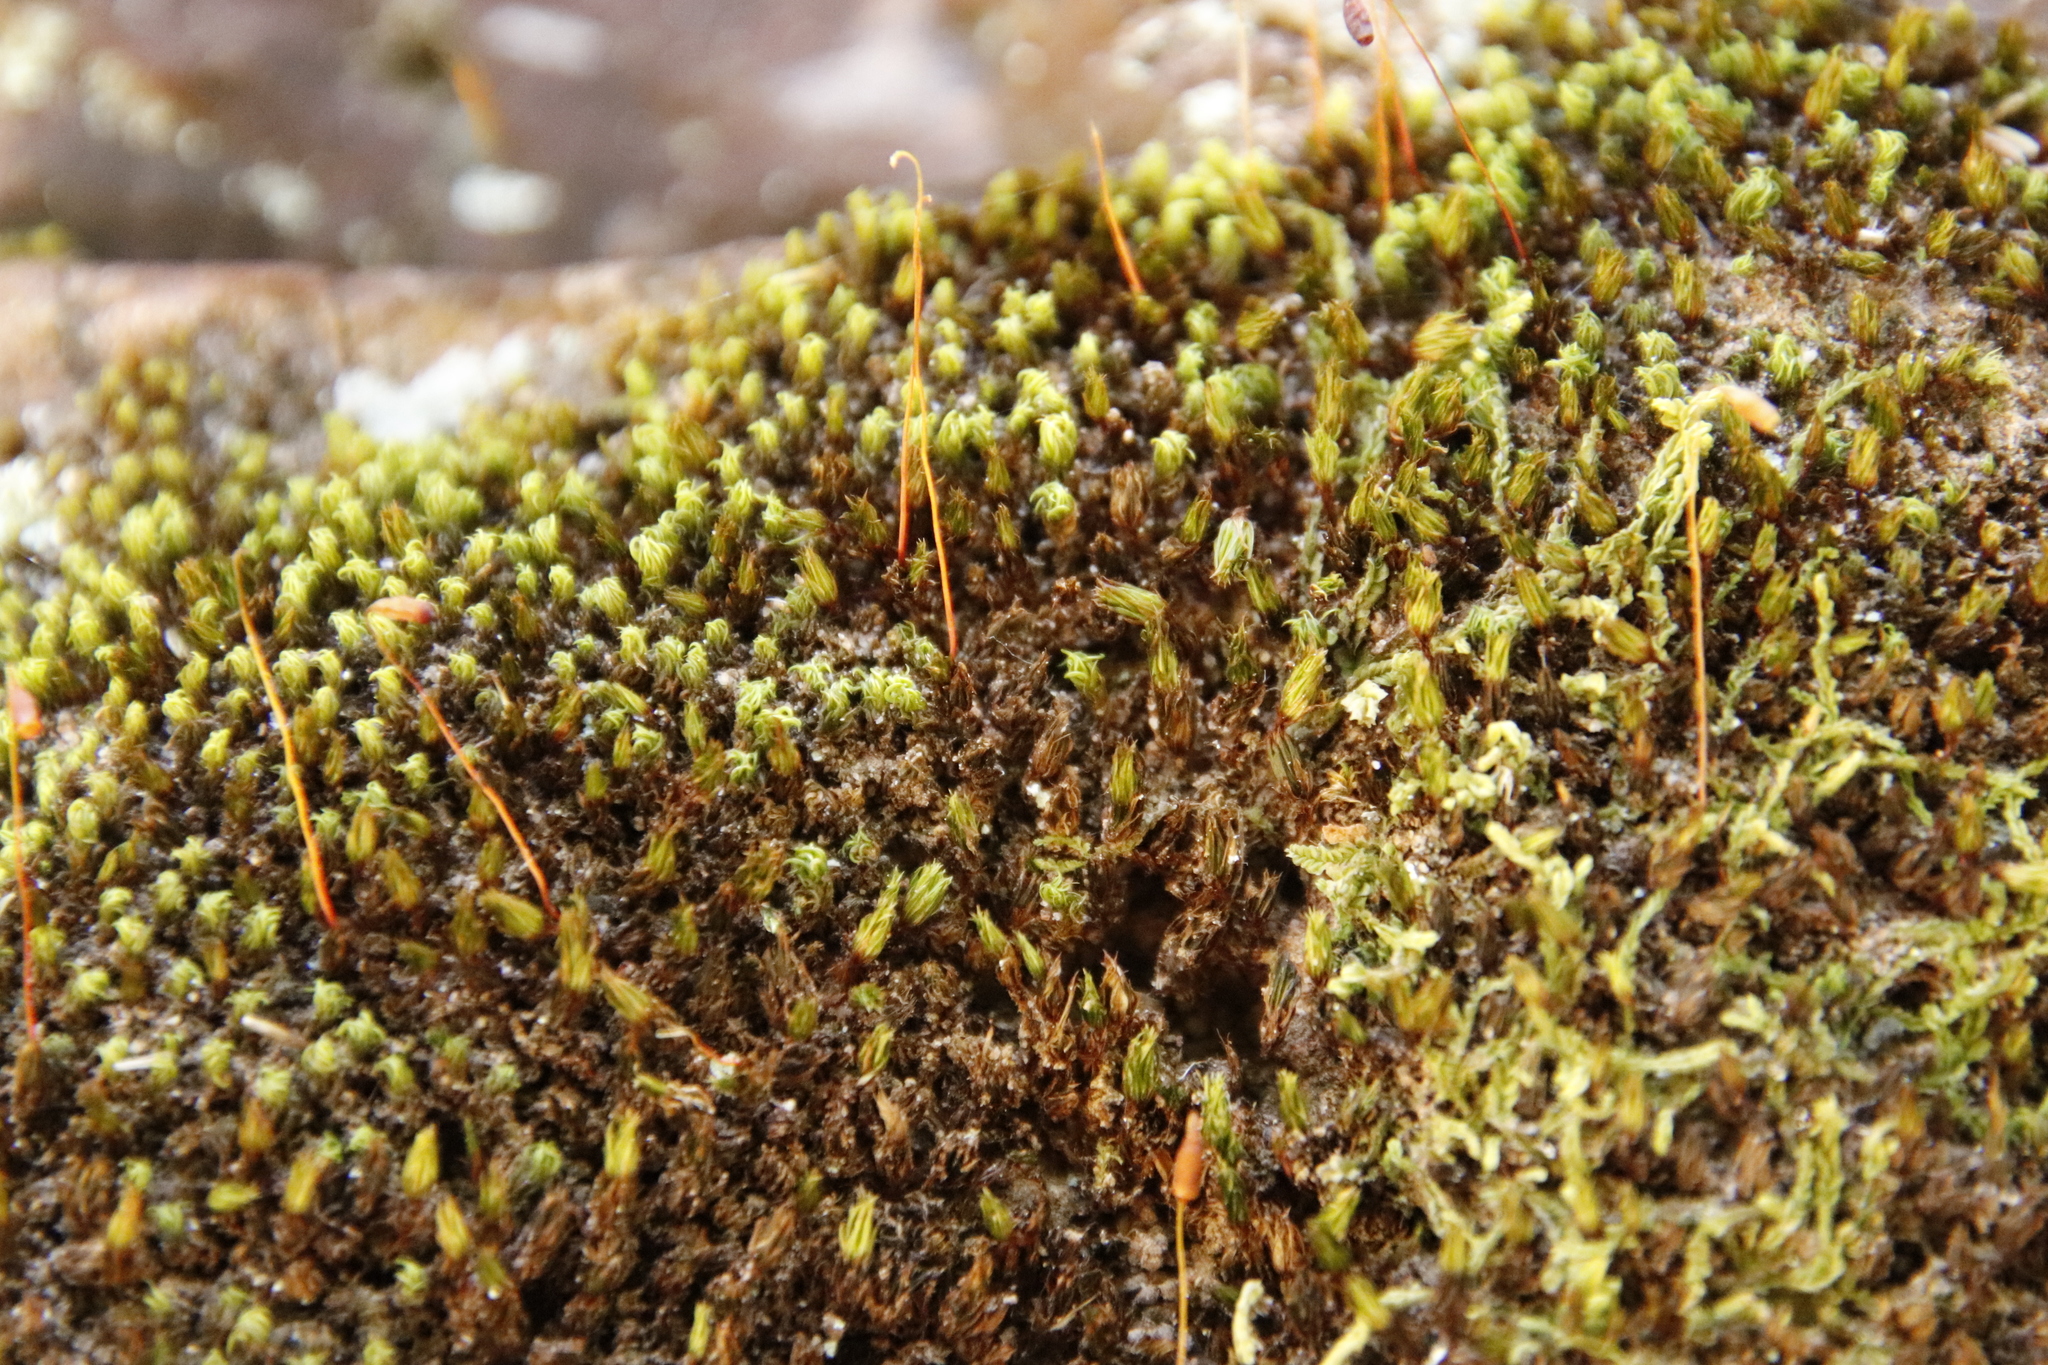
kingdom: Plantae
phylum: Bryophyta
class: Bryopsida
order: Bryales
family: Bryaceae
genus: Rosulabryum
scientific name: Rosulabryum canariense
